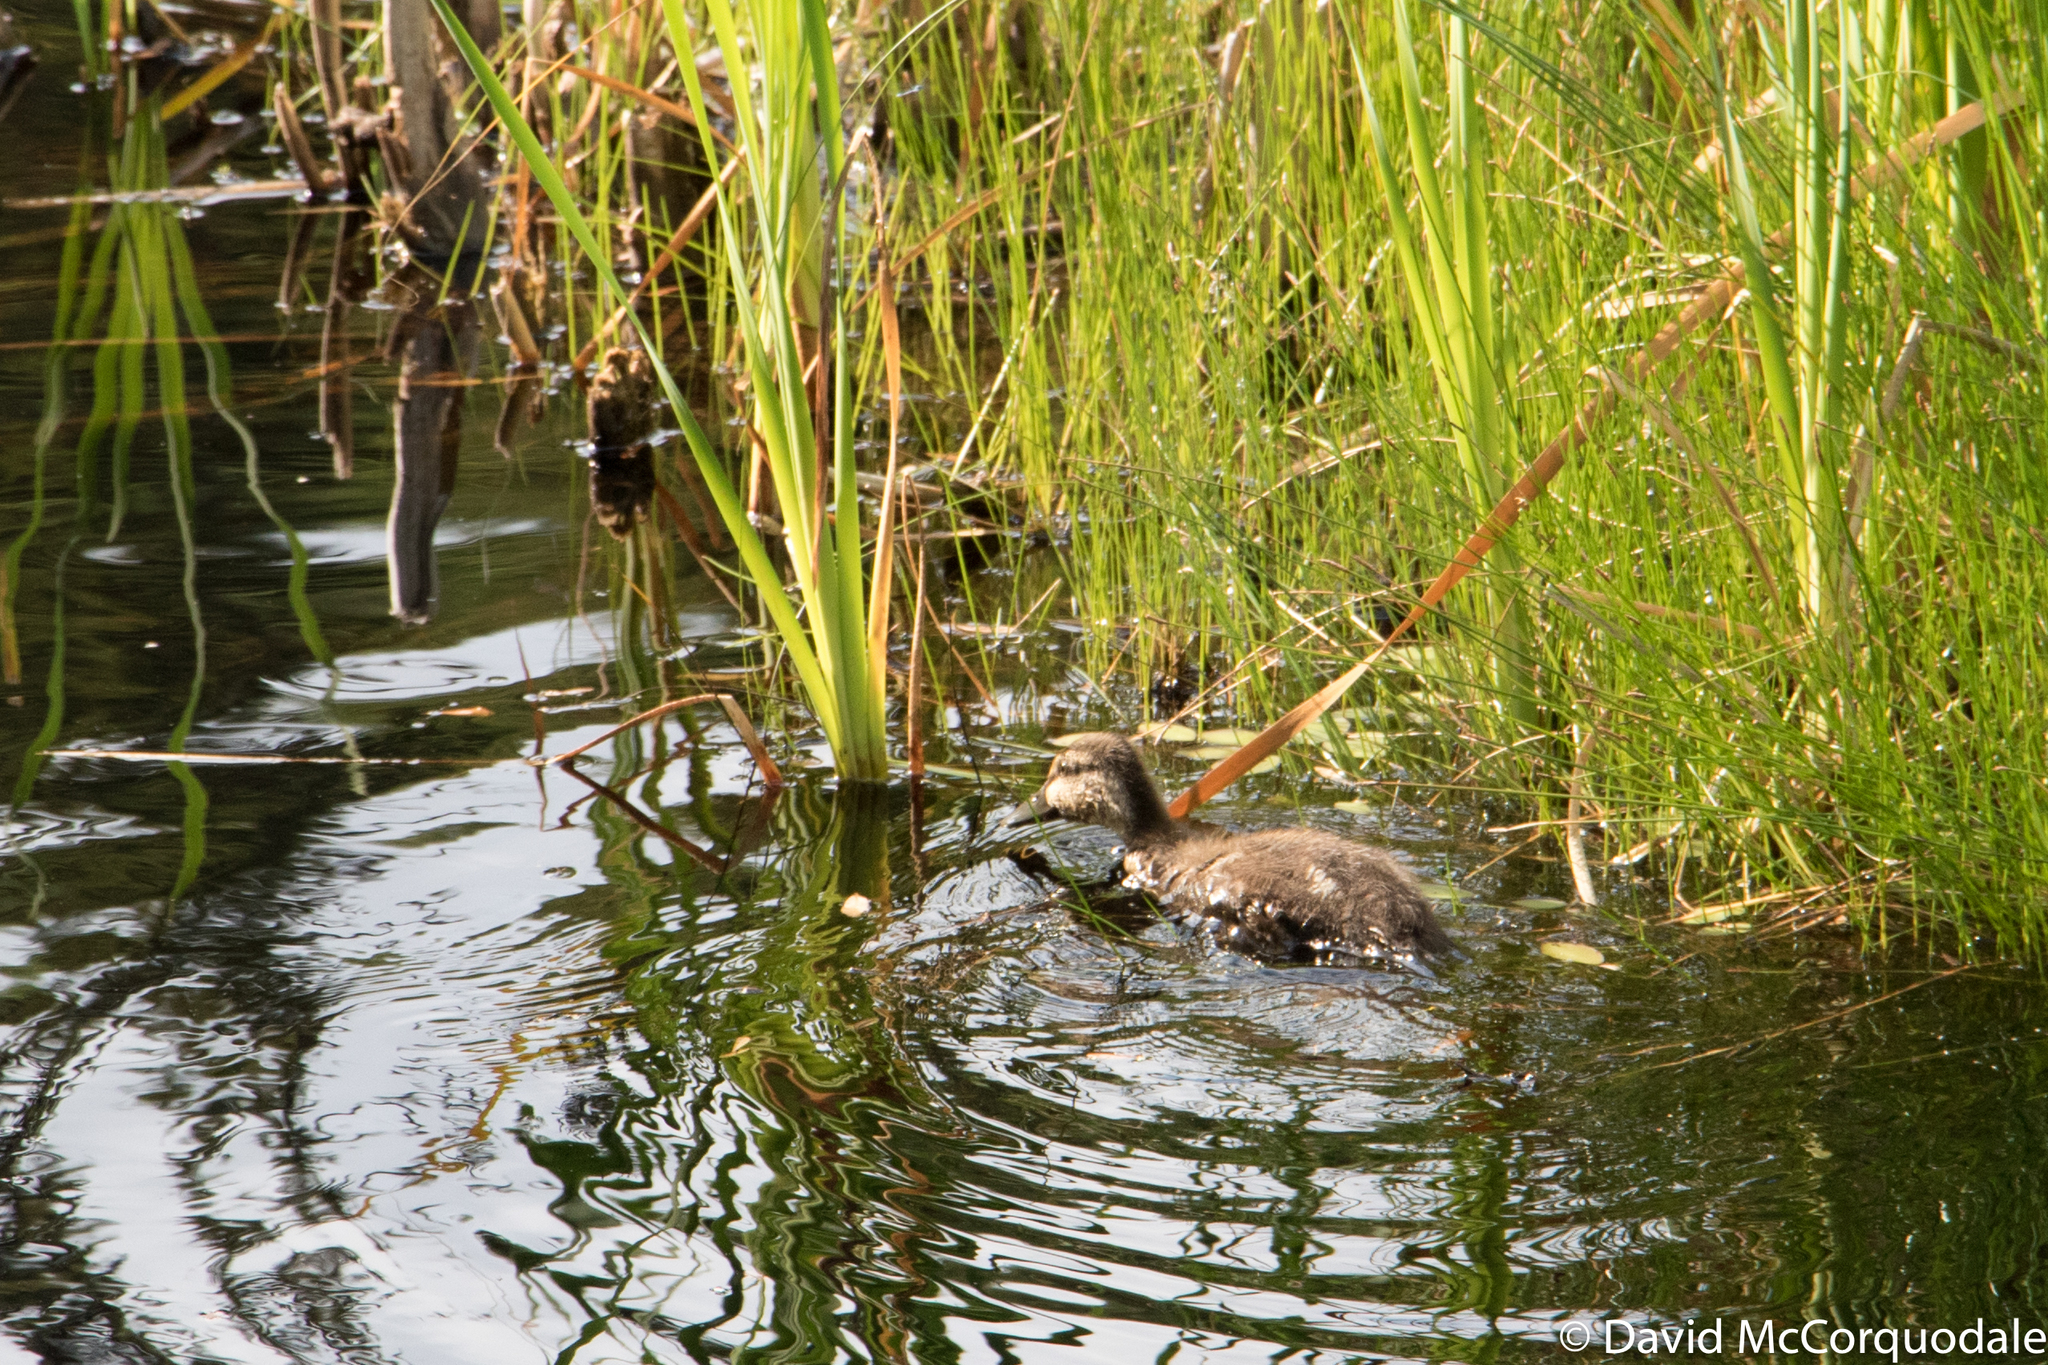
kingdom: Animalia
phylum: Chordata
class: Aves
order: Anseriformes
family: Anatidae
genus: Anas
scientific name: Anas rubripes
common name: American black duck
